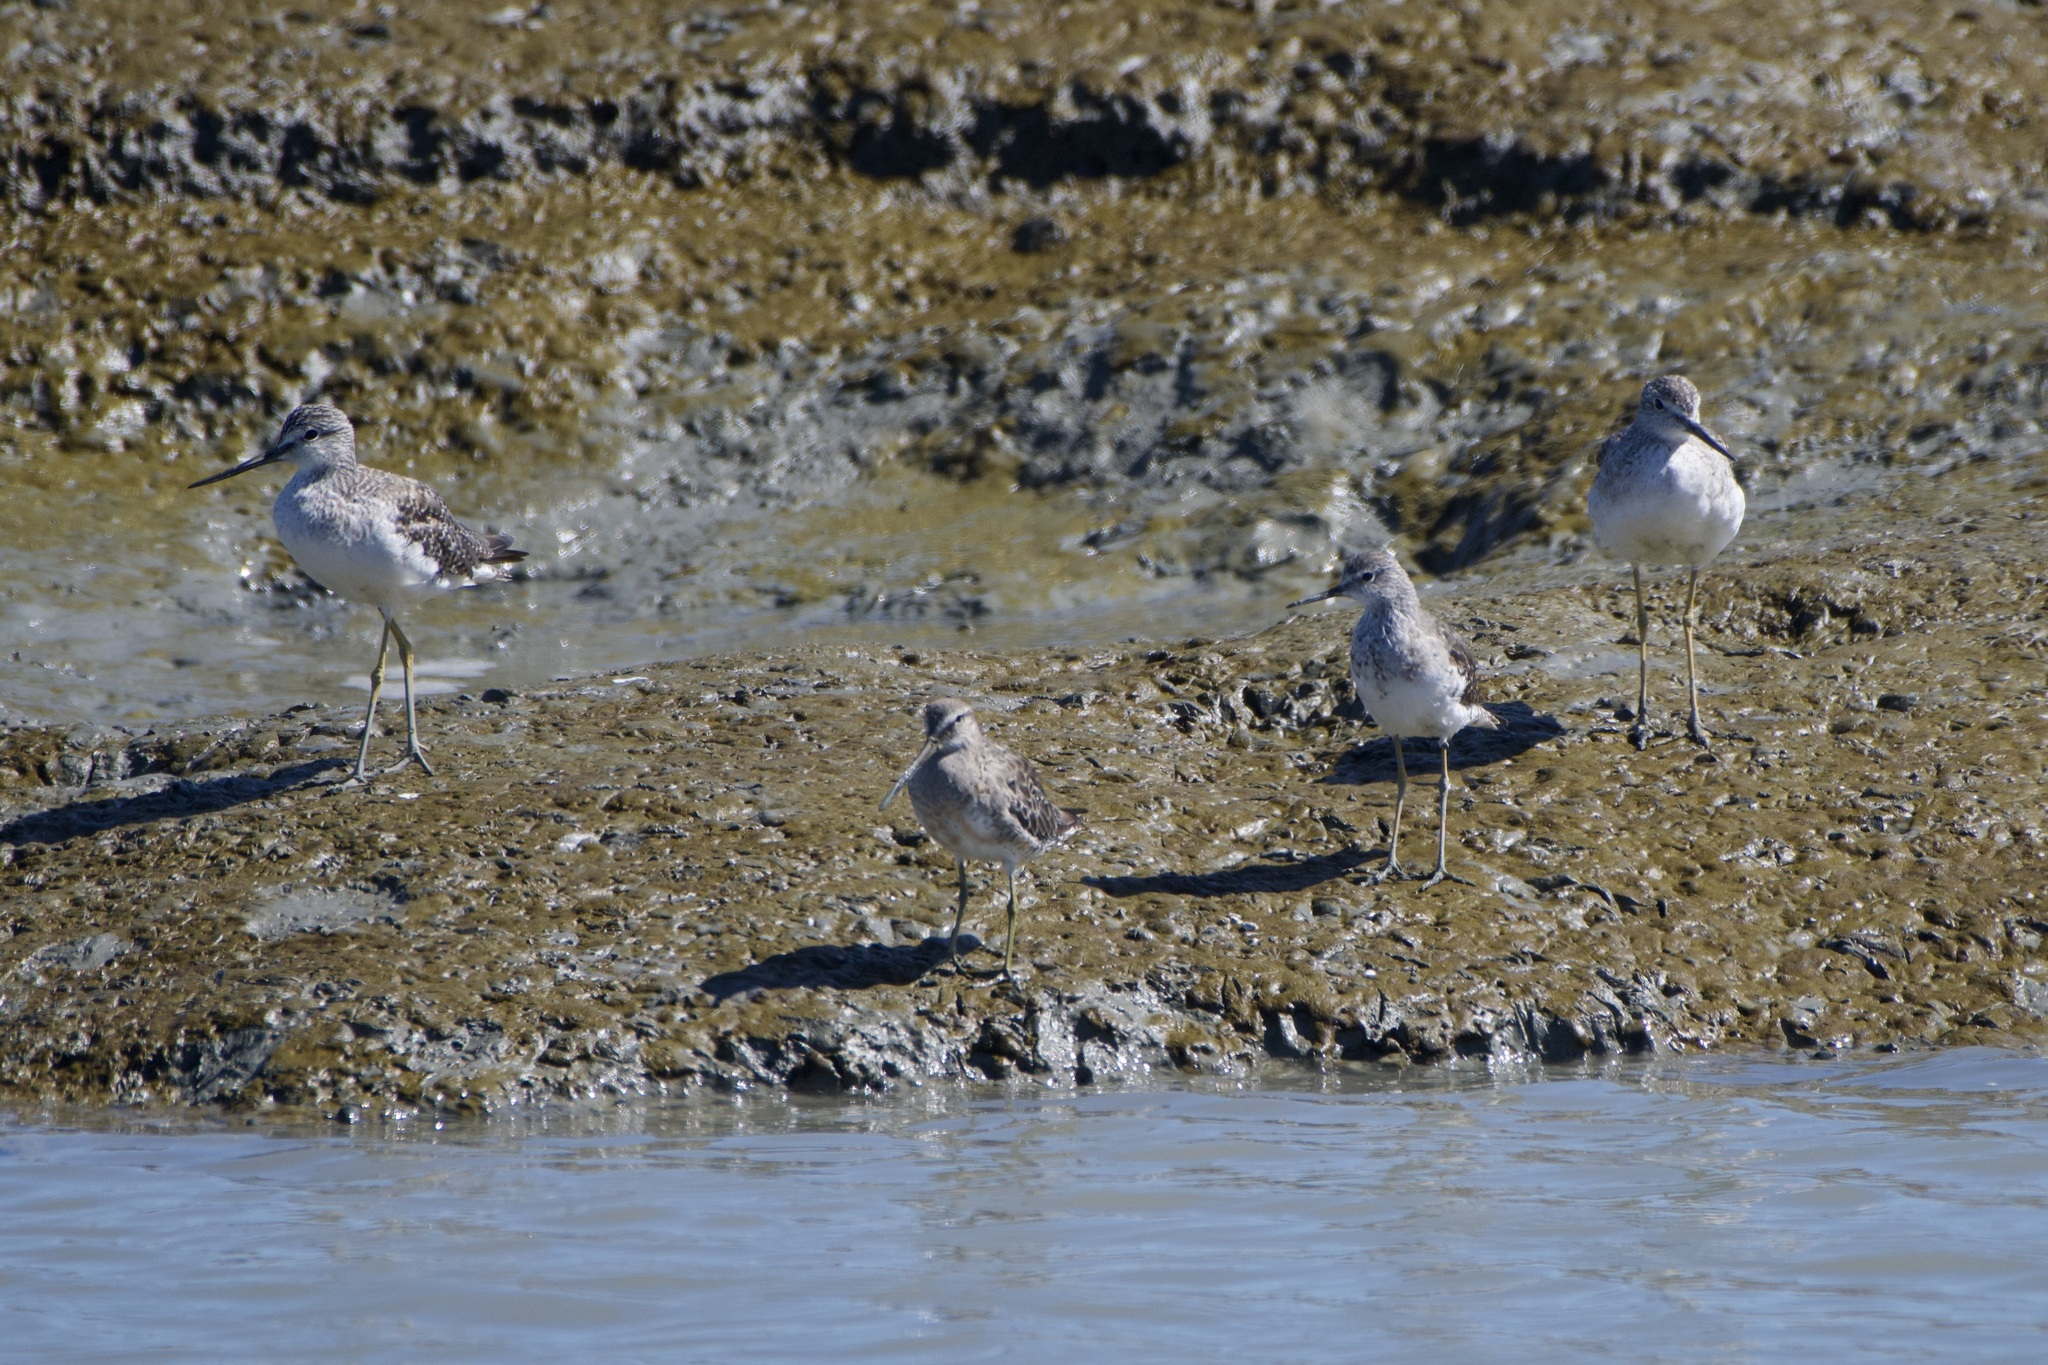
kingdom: Animalia
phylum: Chordata
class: Aves
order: Charadriiformes
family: Scolopacidae
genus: Tringa
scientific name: Tringa flavipes
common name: Lesser yellowlegs
